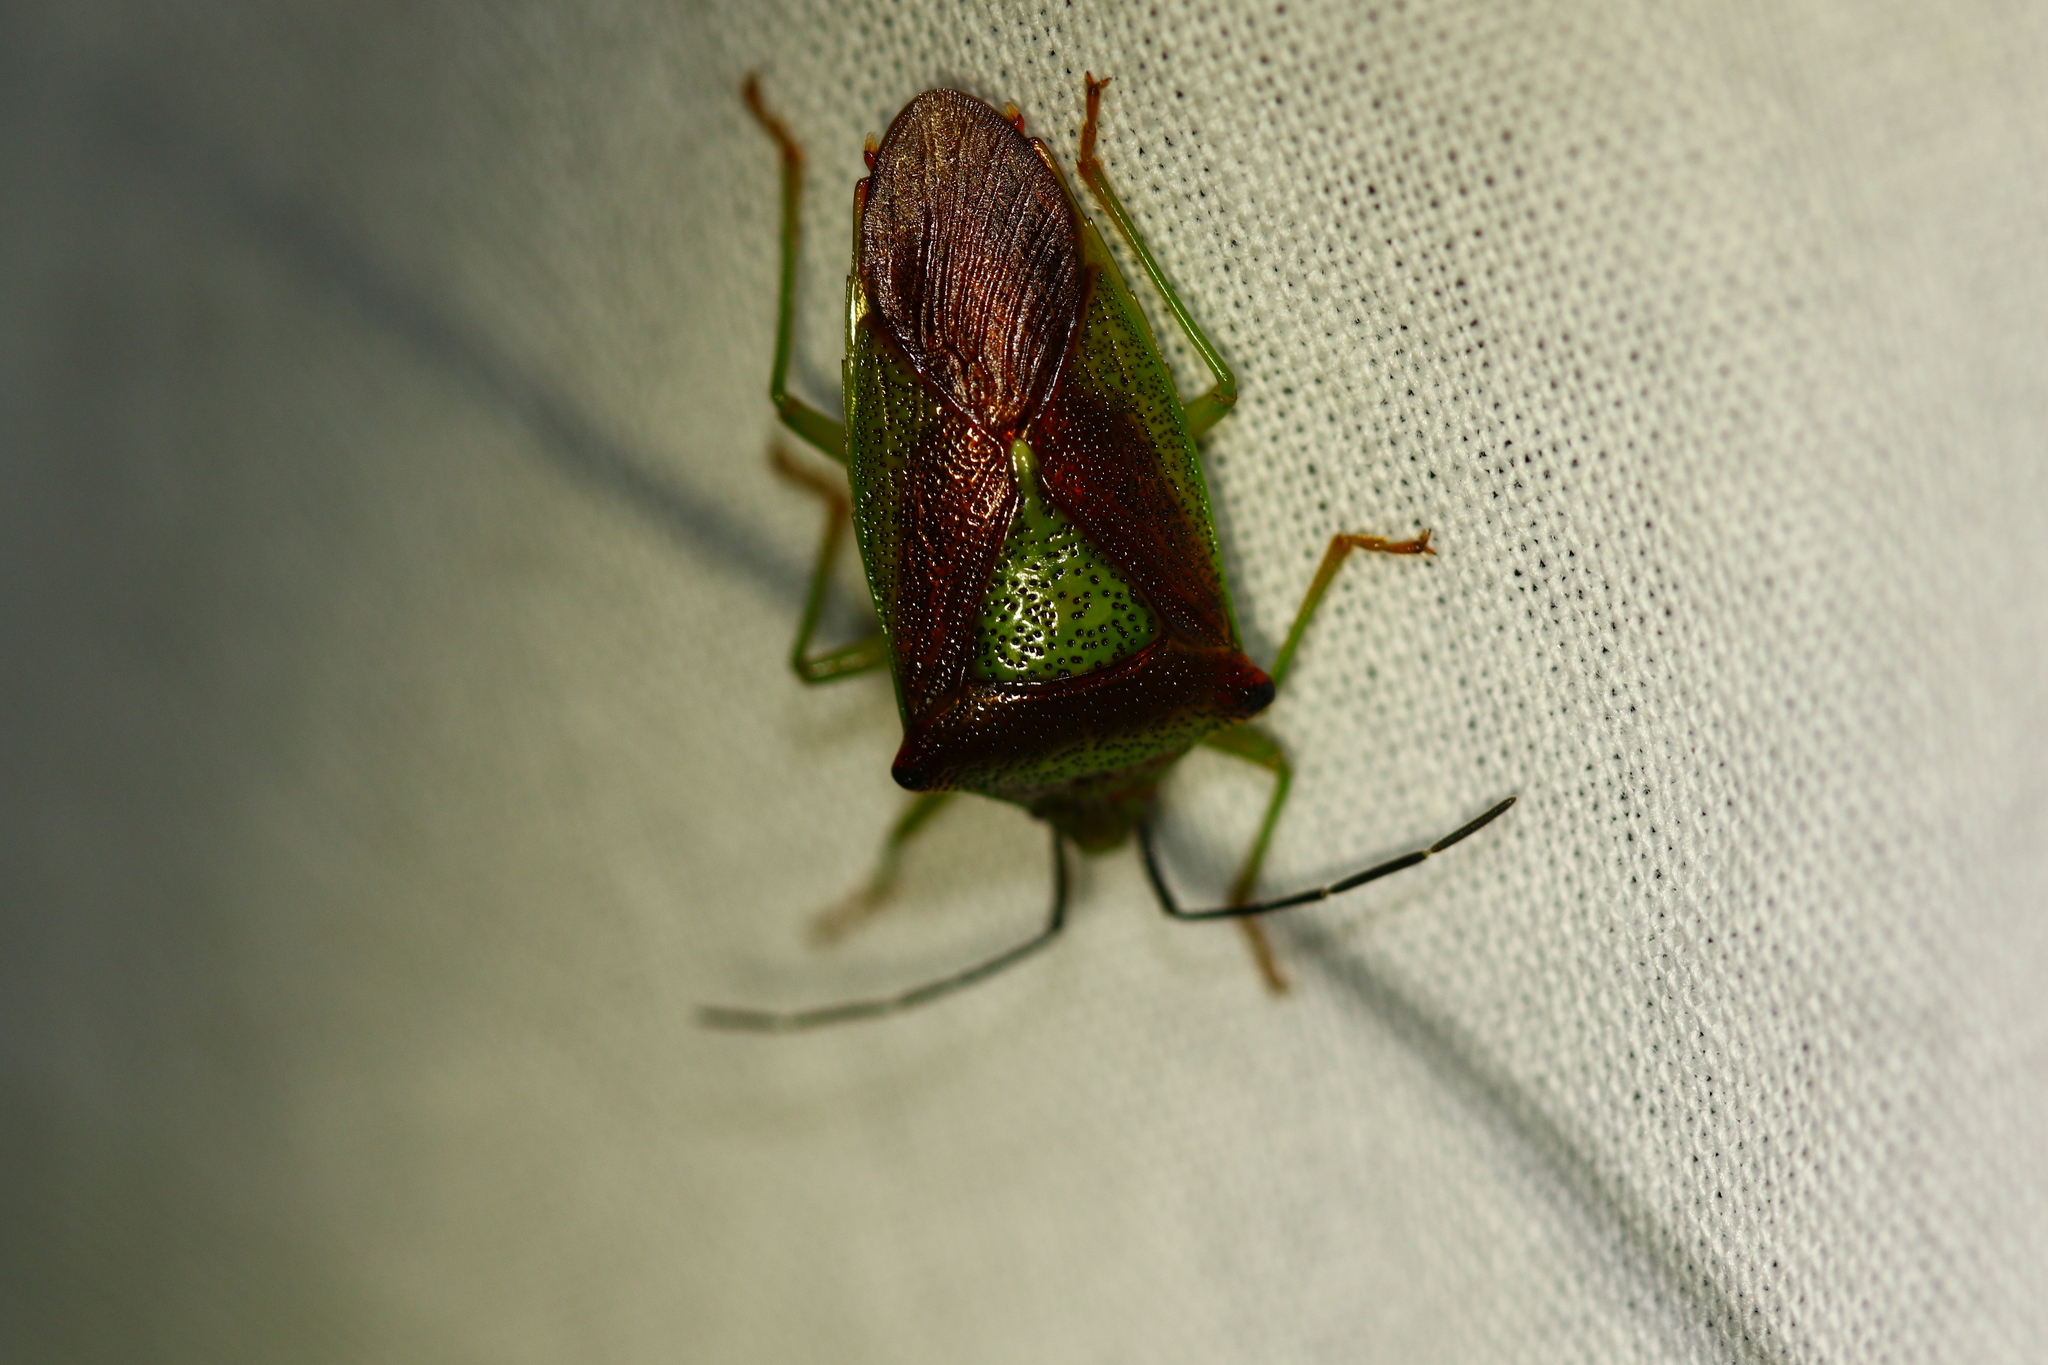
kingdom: Animalia
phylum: Arthropoda
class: Insecta
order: Hemiptera
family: Acanthosomatidae
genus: Acanthosoma
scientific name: Acanthosoma haemorrhoidale
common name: Hawthorn shieldbug
